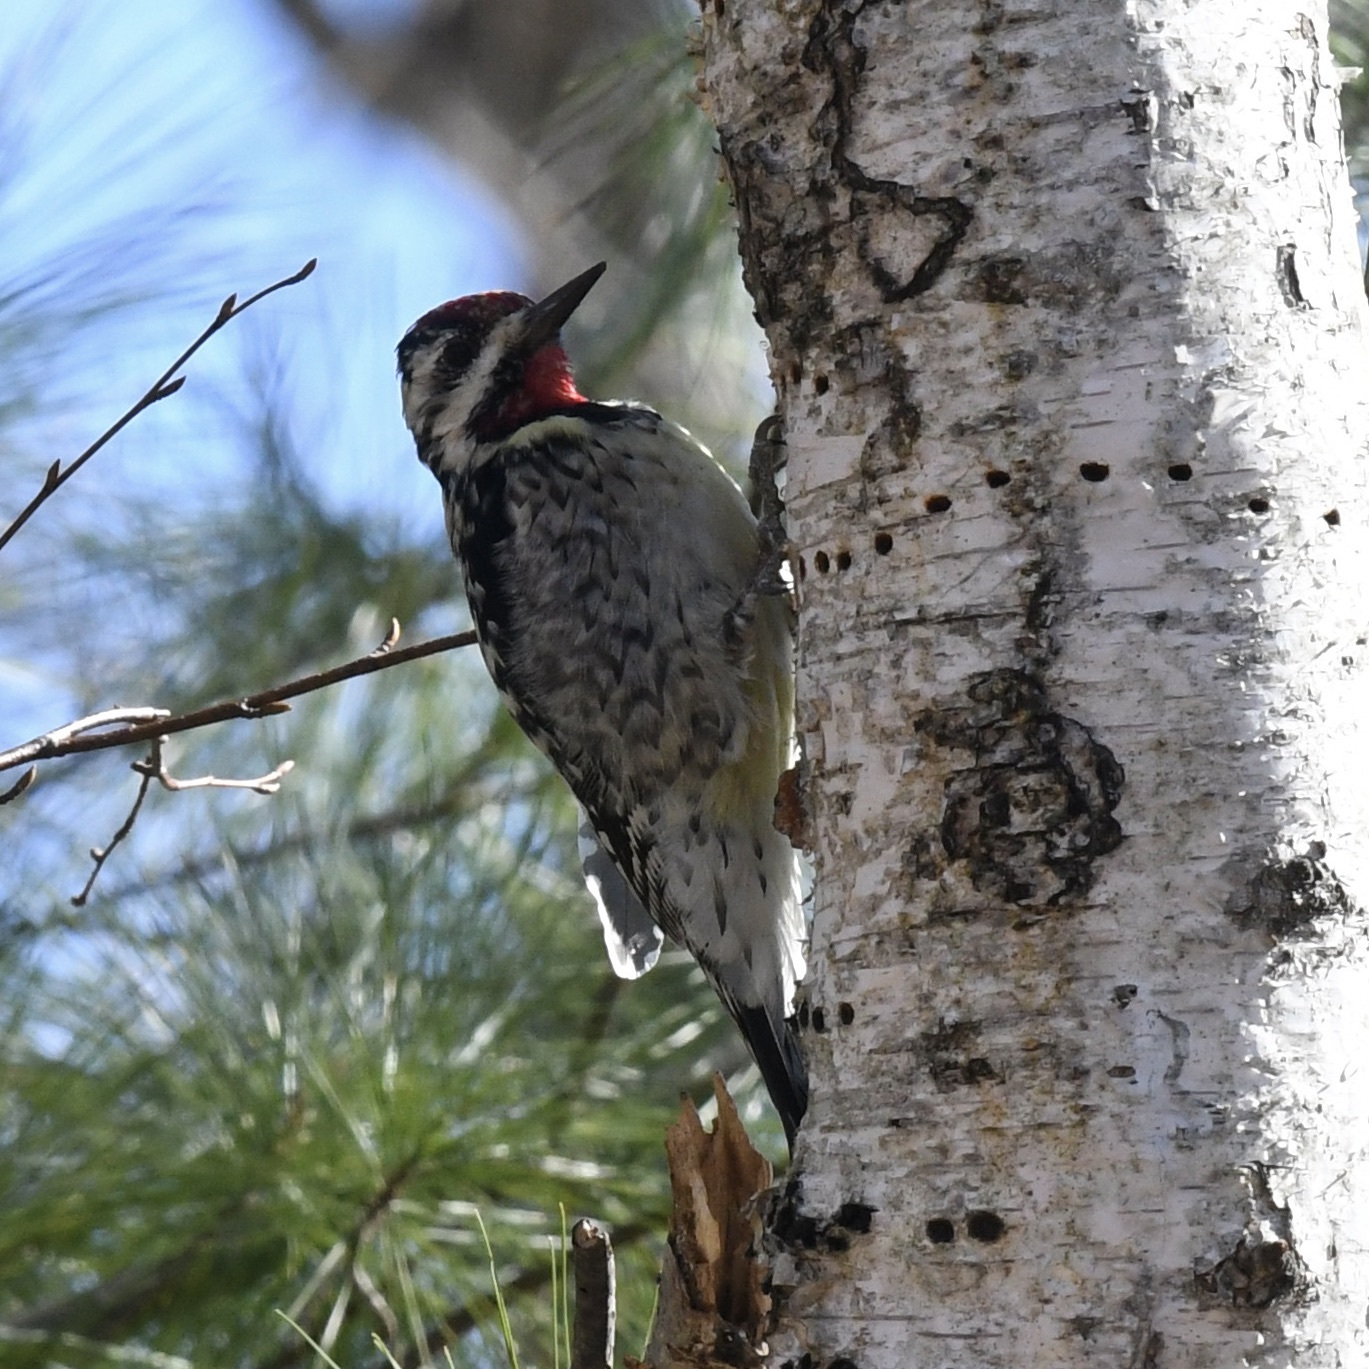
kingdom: Animalia
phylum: Chordata
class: Aves
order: Piciformes
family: Picidae
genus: Sphyrapicus
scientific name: Sphyrapicus varius
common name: Yellow-bellied sapsucker
